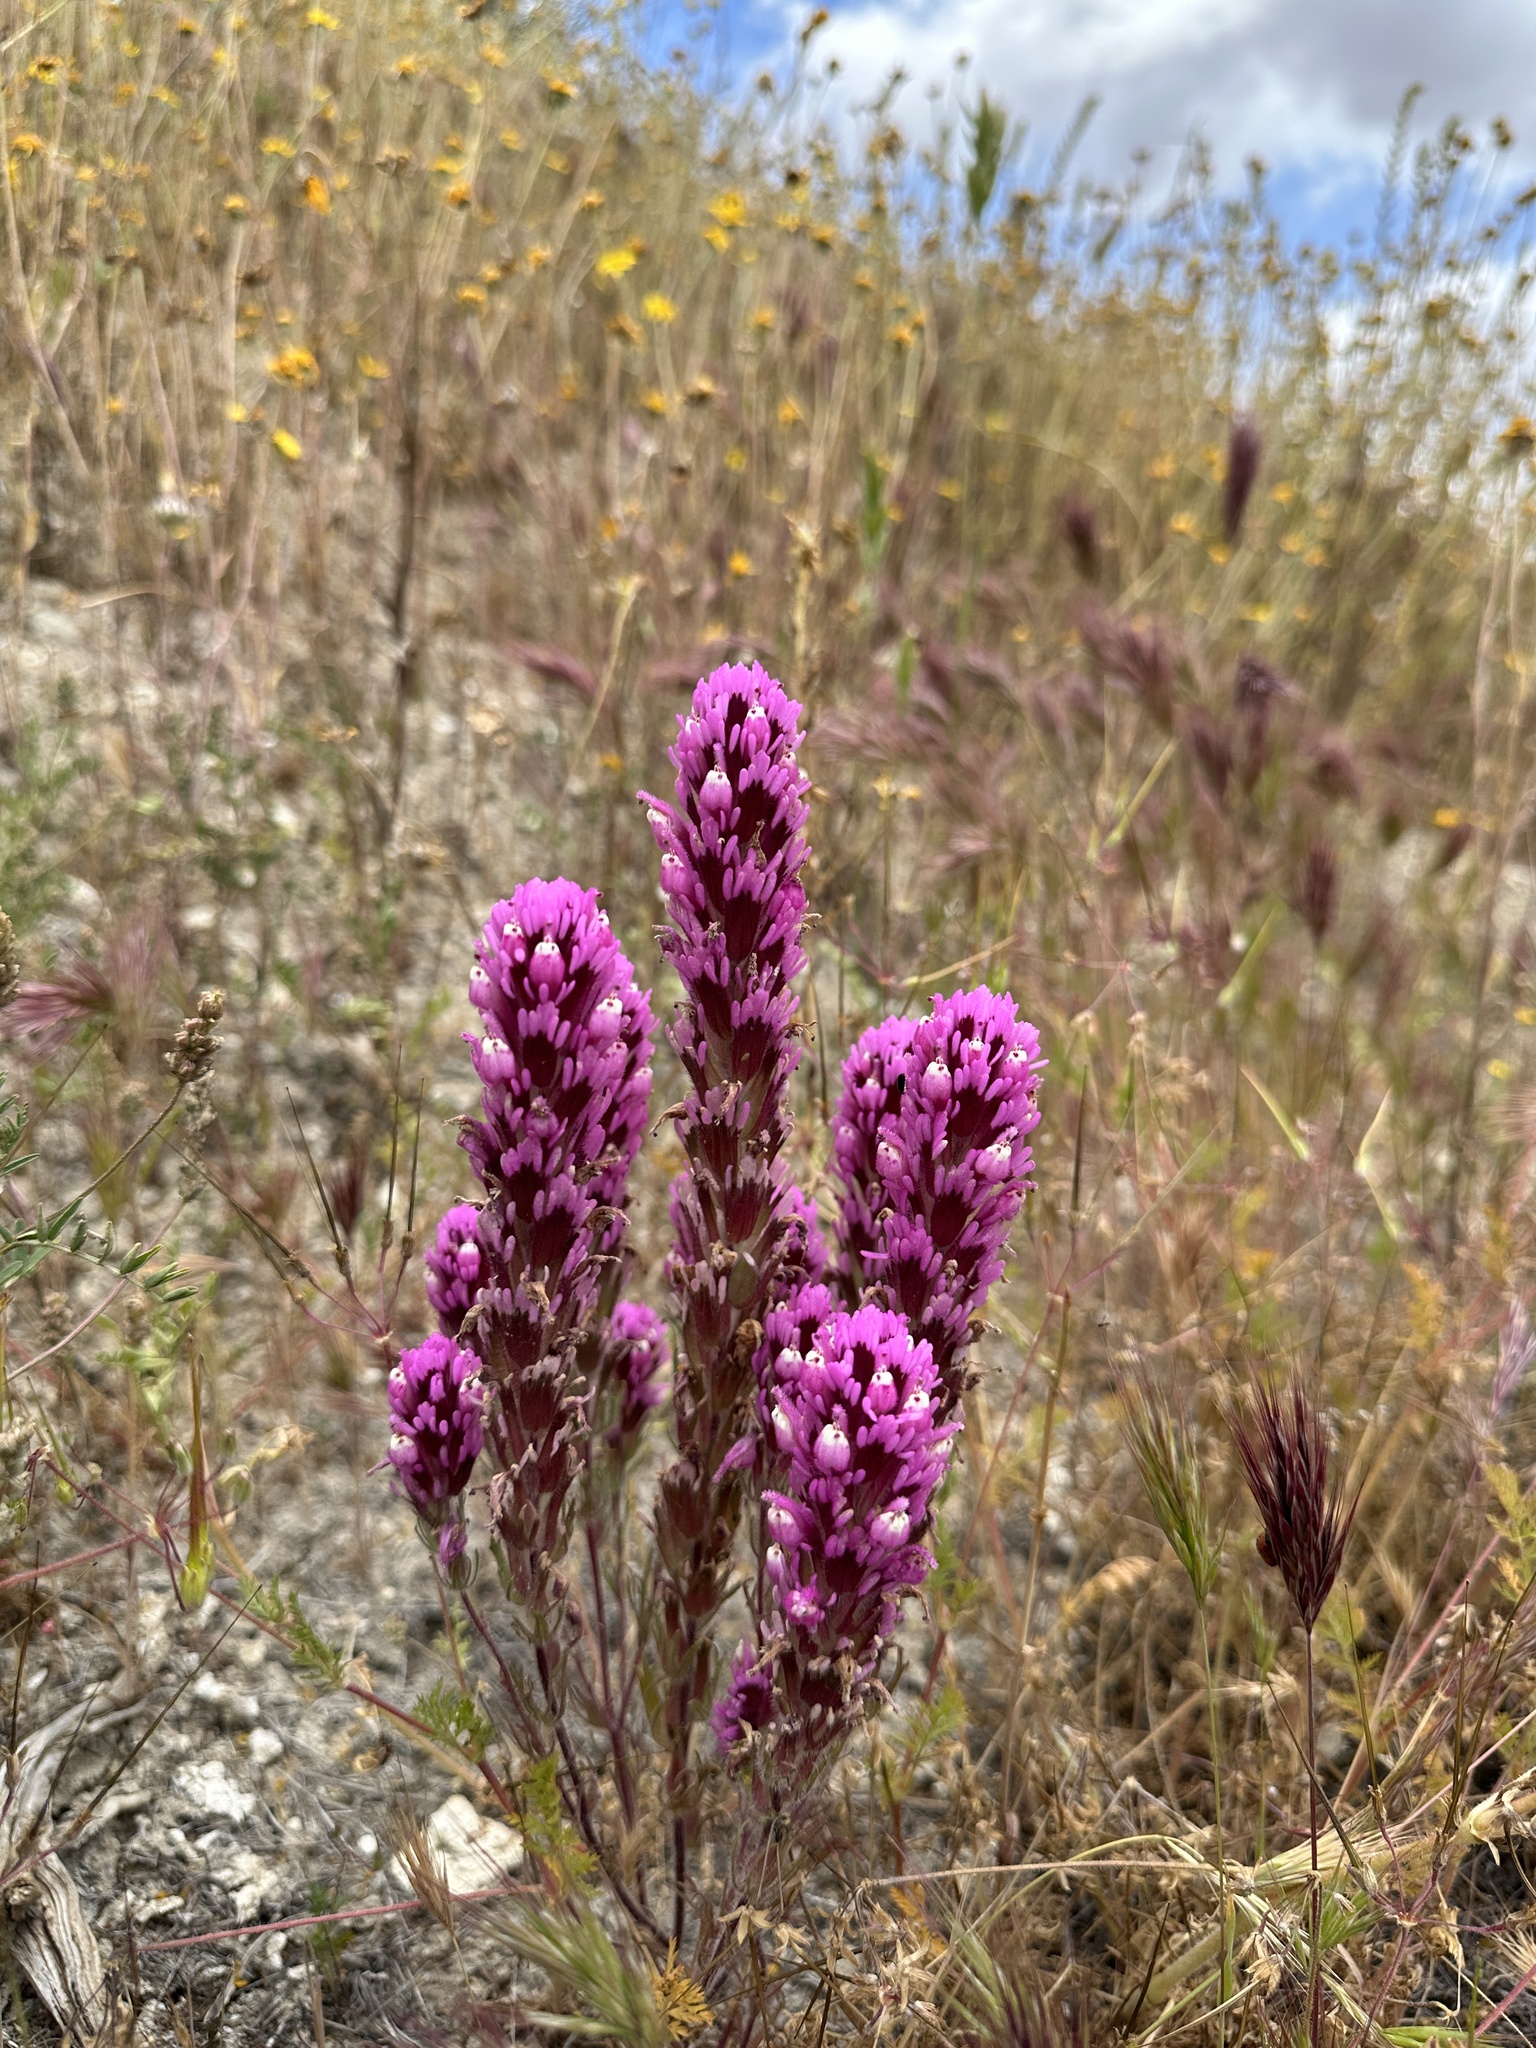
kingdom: Plantae
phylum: Tracheophyta
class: Magnoliopsida
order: Lamiales
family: Orobanchaceae
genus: Castilleja
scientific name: Castilleja exserta
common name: Purple owl-clover
